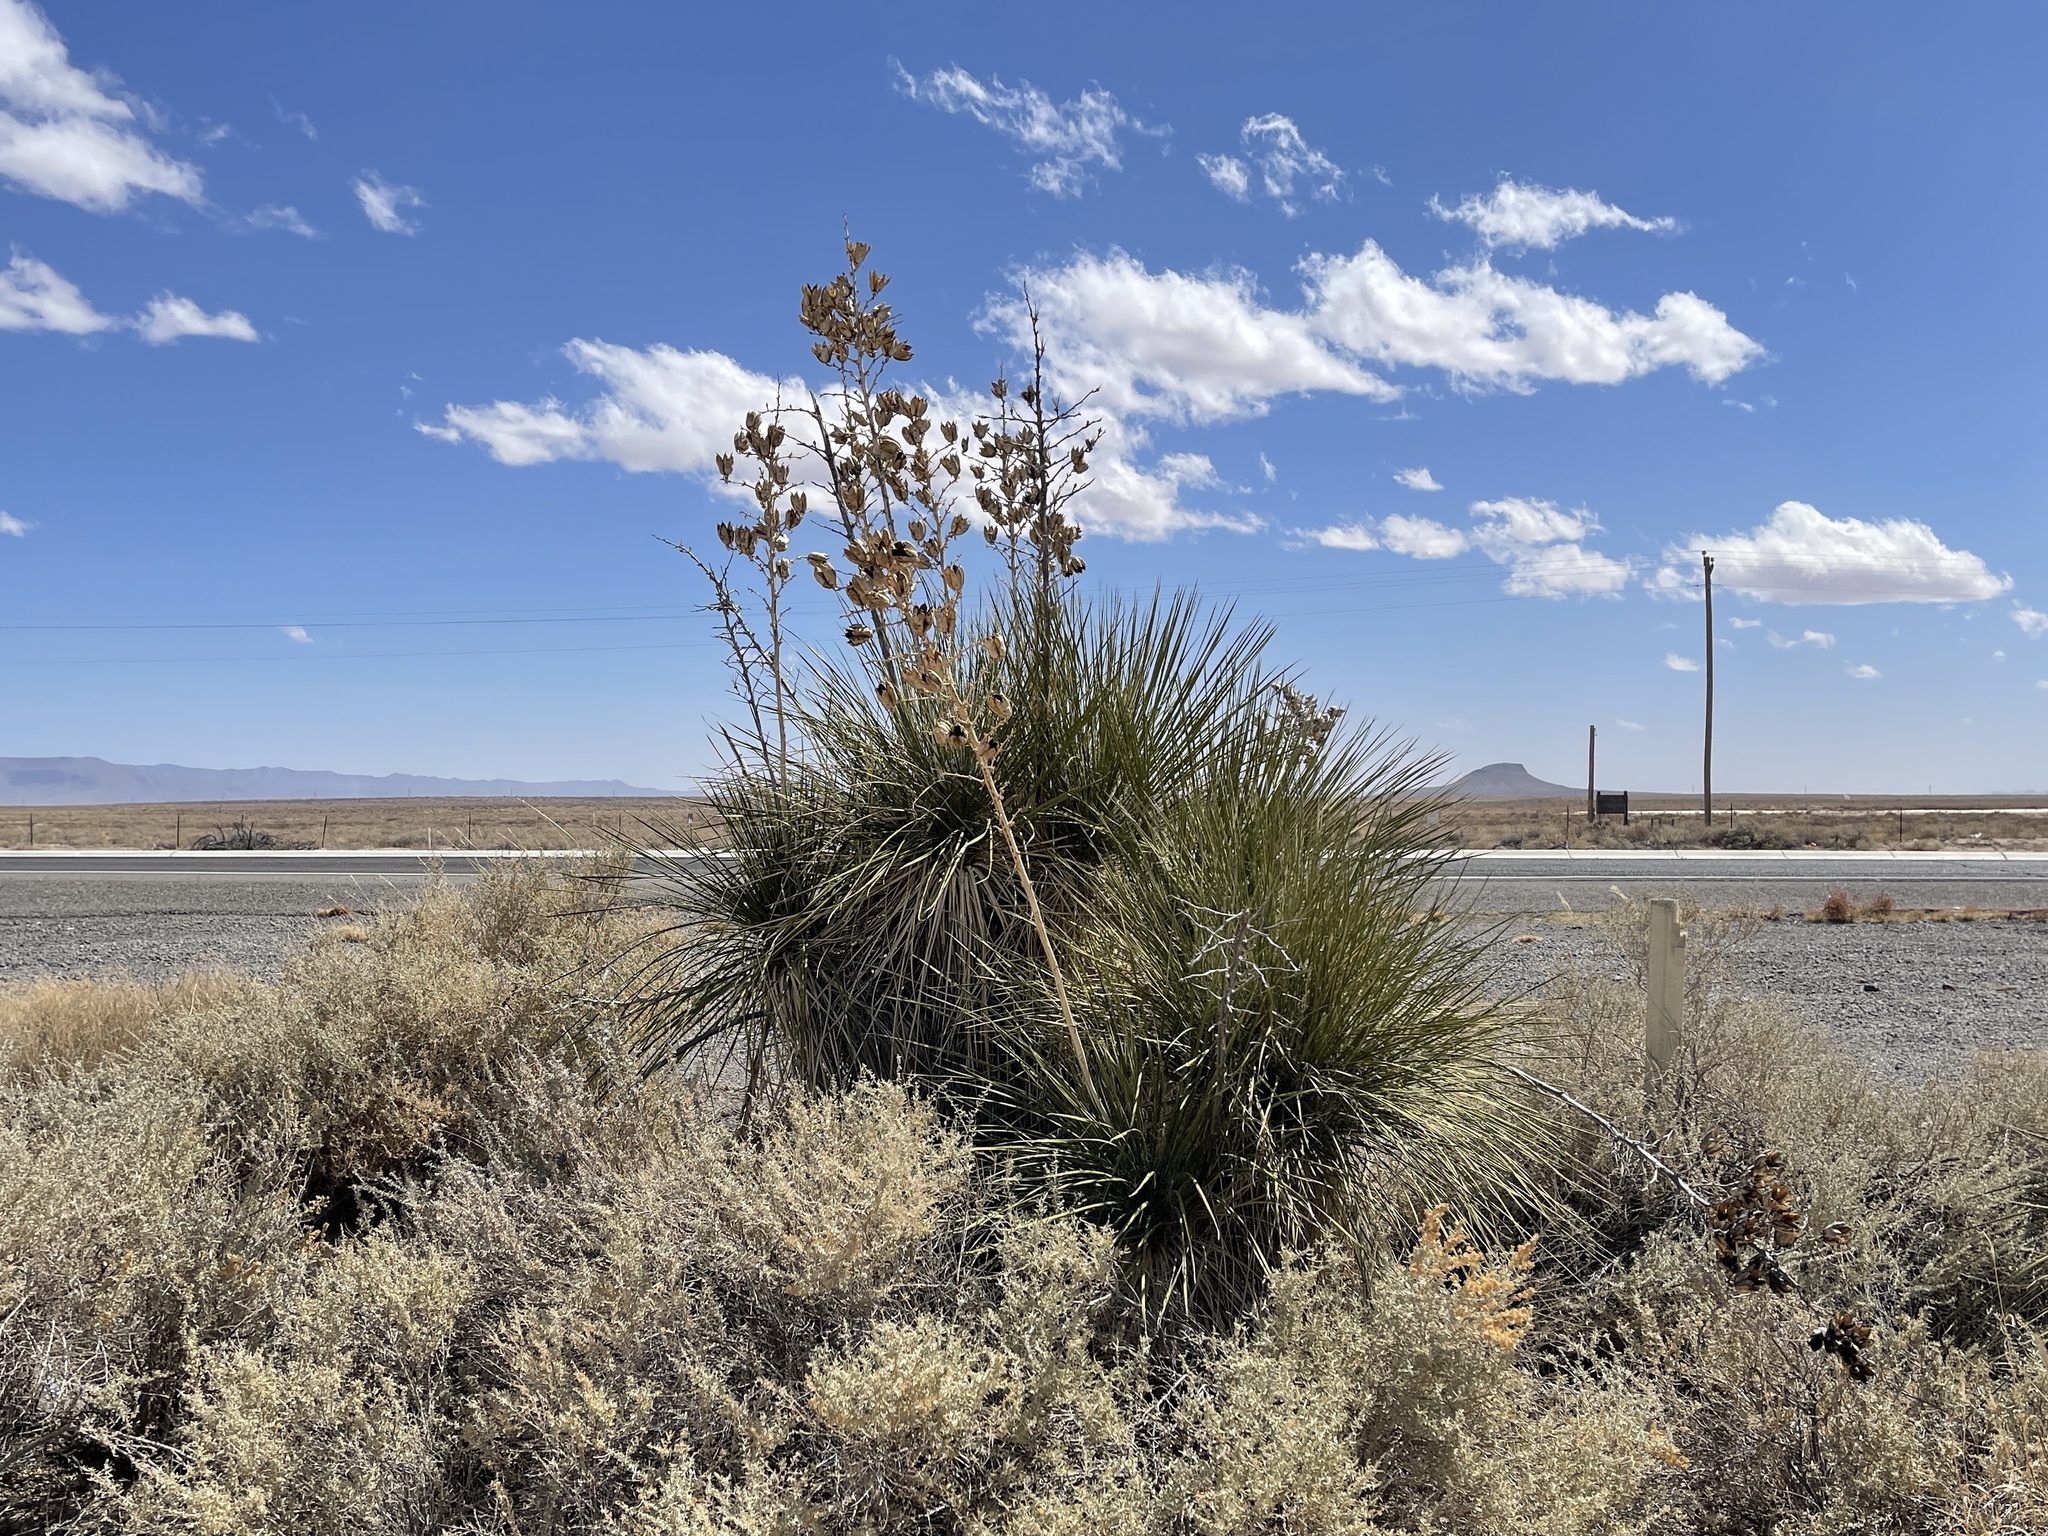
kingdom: Plantae
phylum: Tracheophyta
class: Liliopsida
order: Asparagales
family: Asparagaceae
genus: Yucca
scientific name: Yucca elata
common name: Palmella
